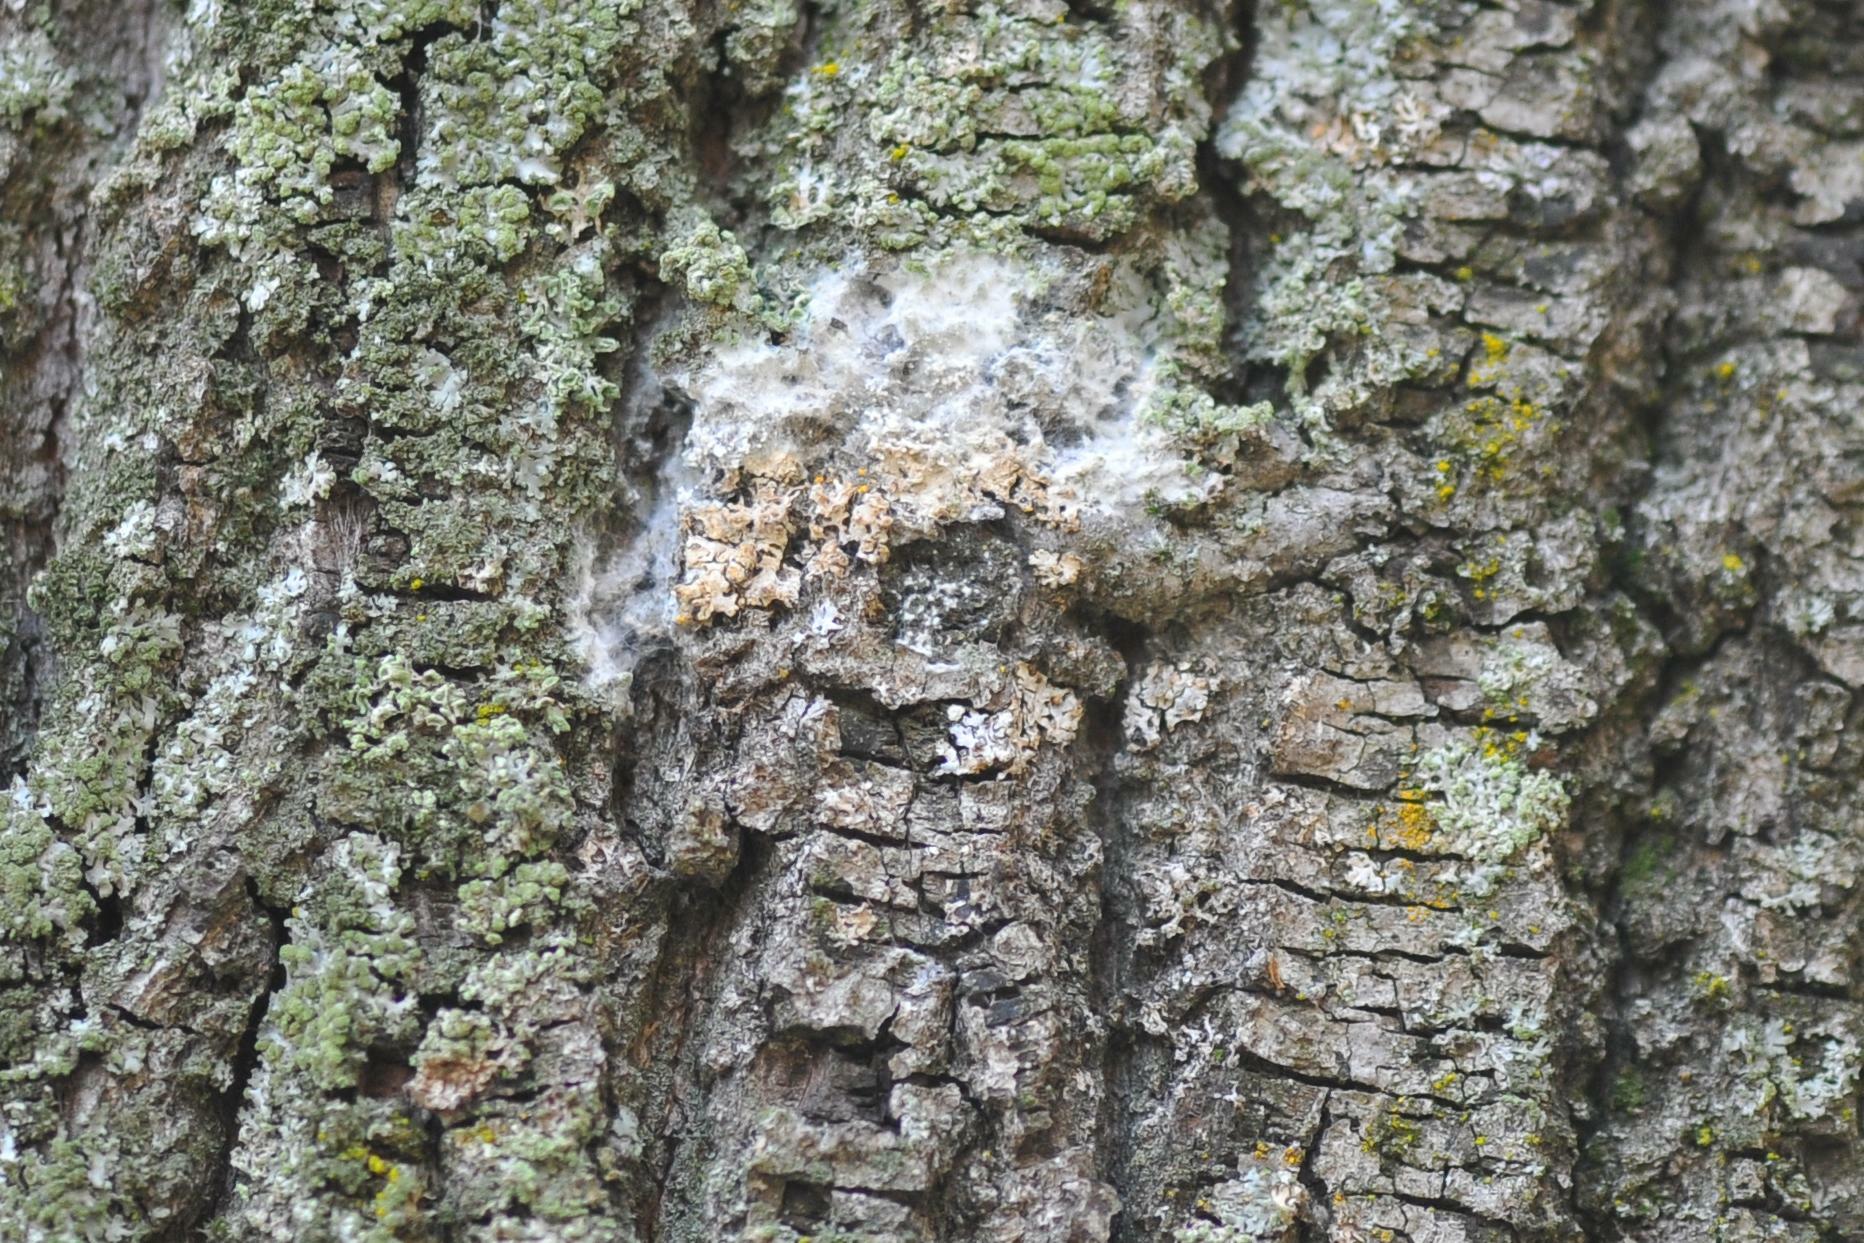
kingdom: Fungi
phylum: Basidiomycota
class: Agaricomycetes
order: Atheliales
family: Atheliaceae
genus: Athelia
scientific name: Athelia arachnoidea
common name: Candelabra duster
